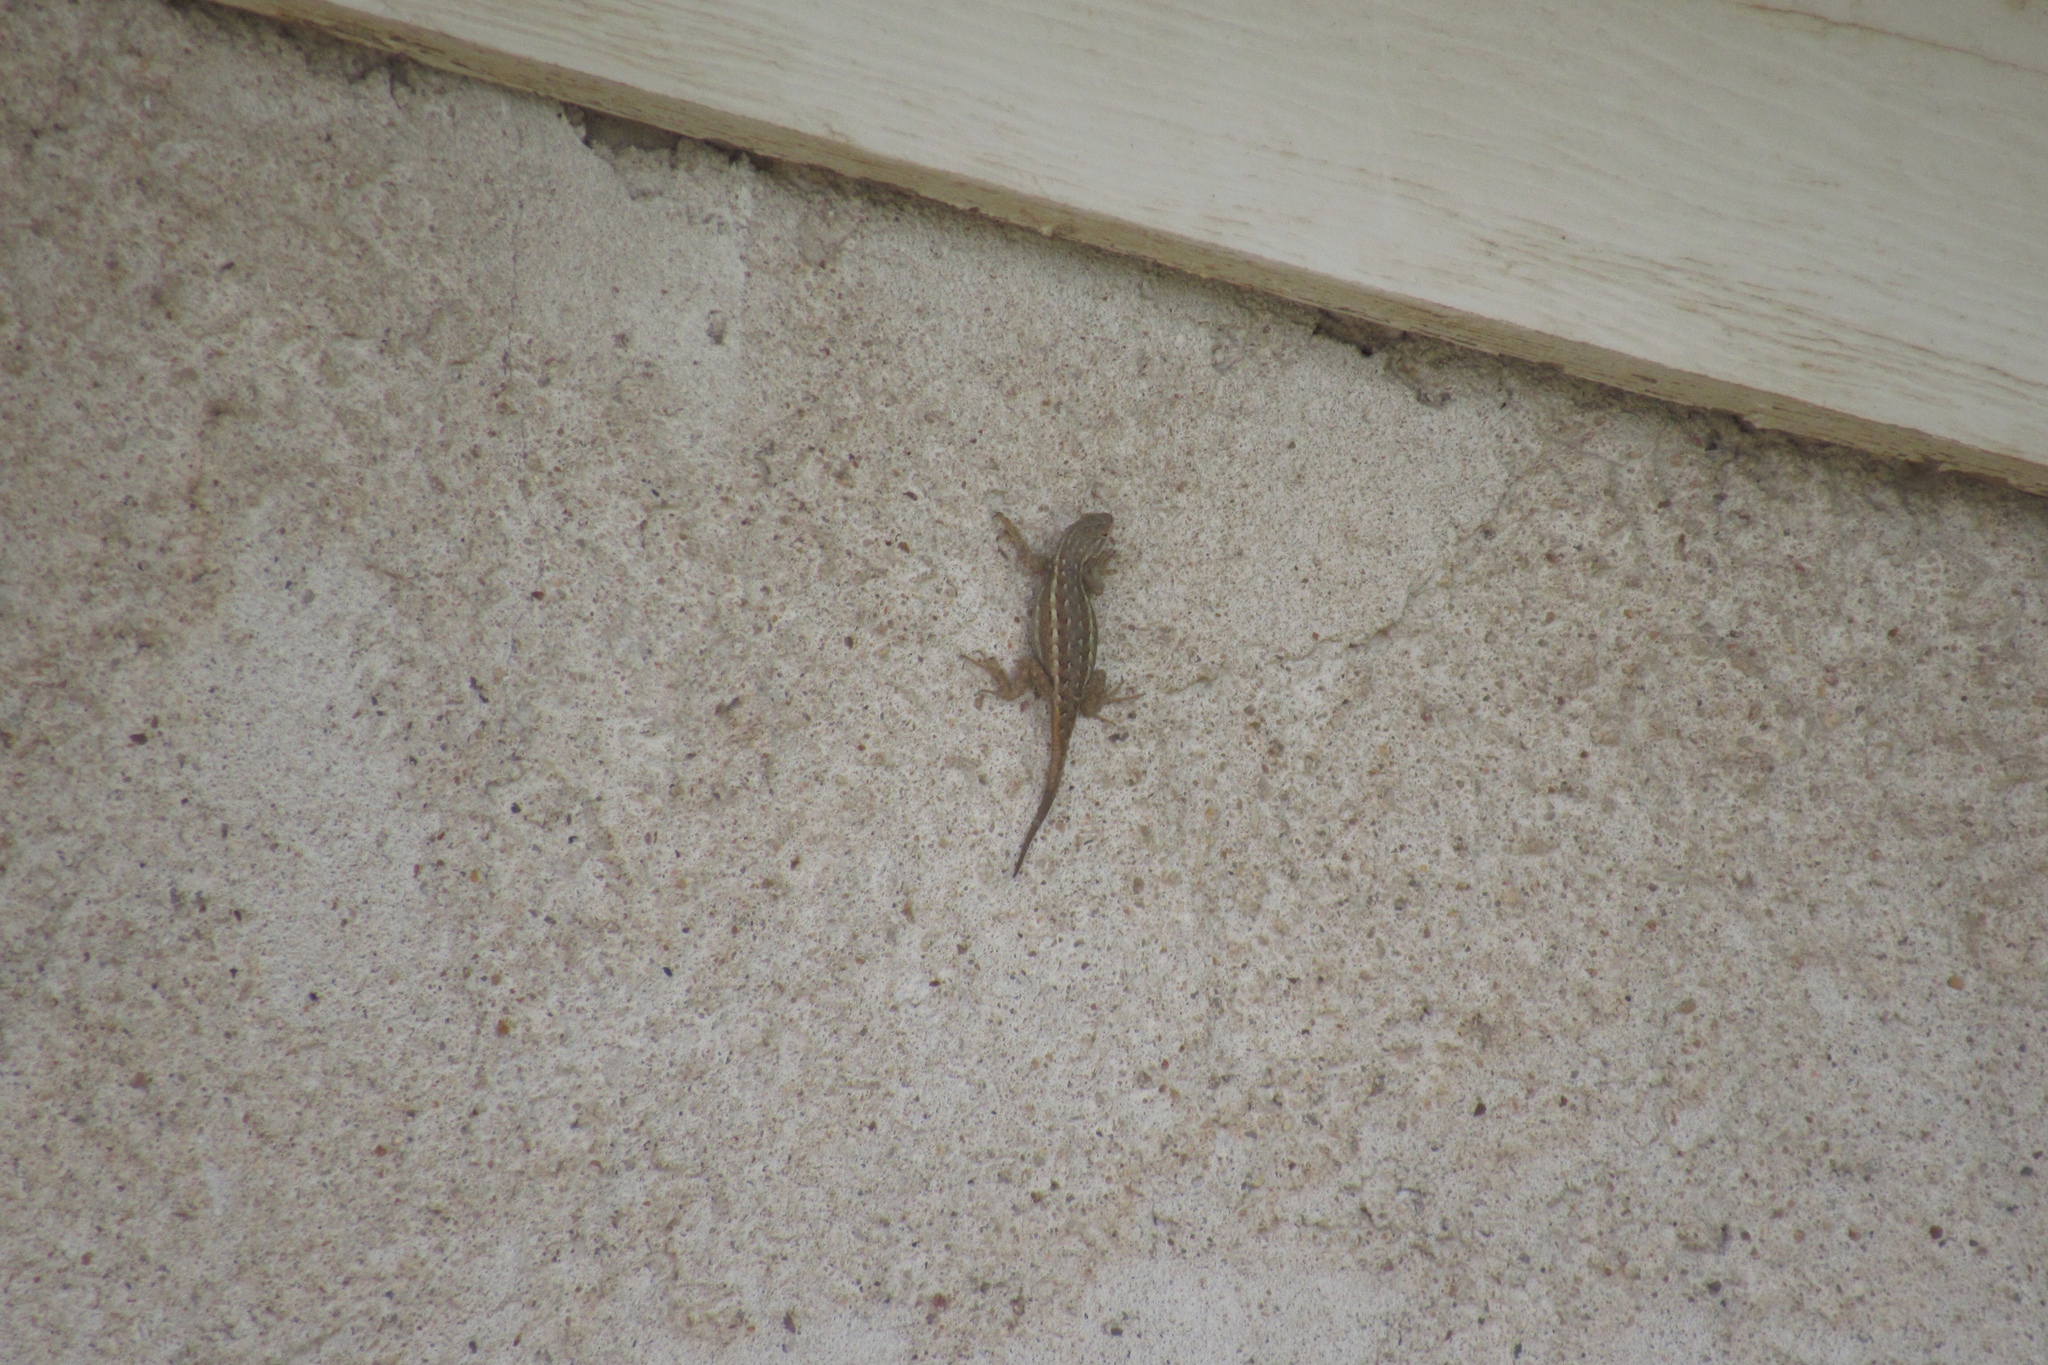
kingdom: Animalia
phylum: Chordata
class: Squamata
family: Phrynosomatidae
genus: Sceloporus
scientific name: Sceloporus cowlesi
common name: White sands prairie lizard
